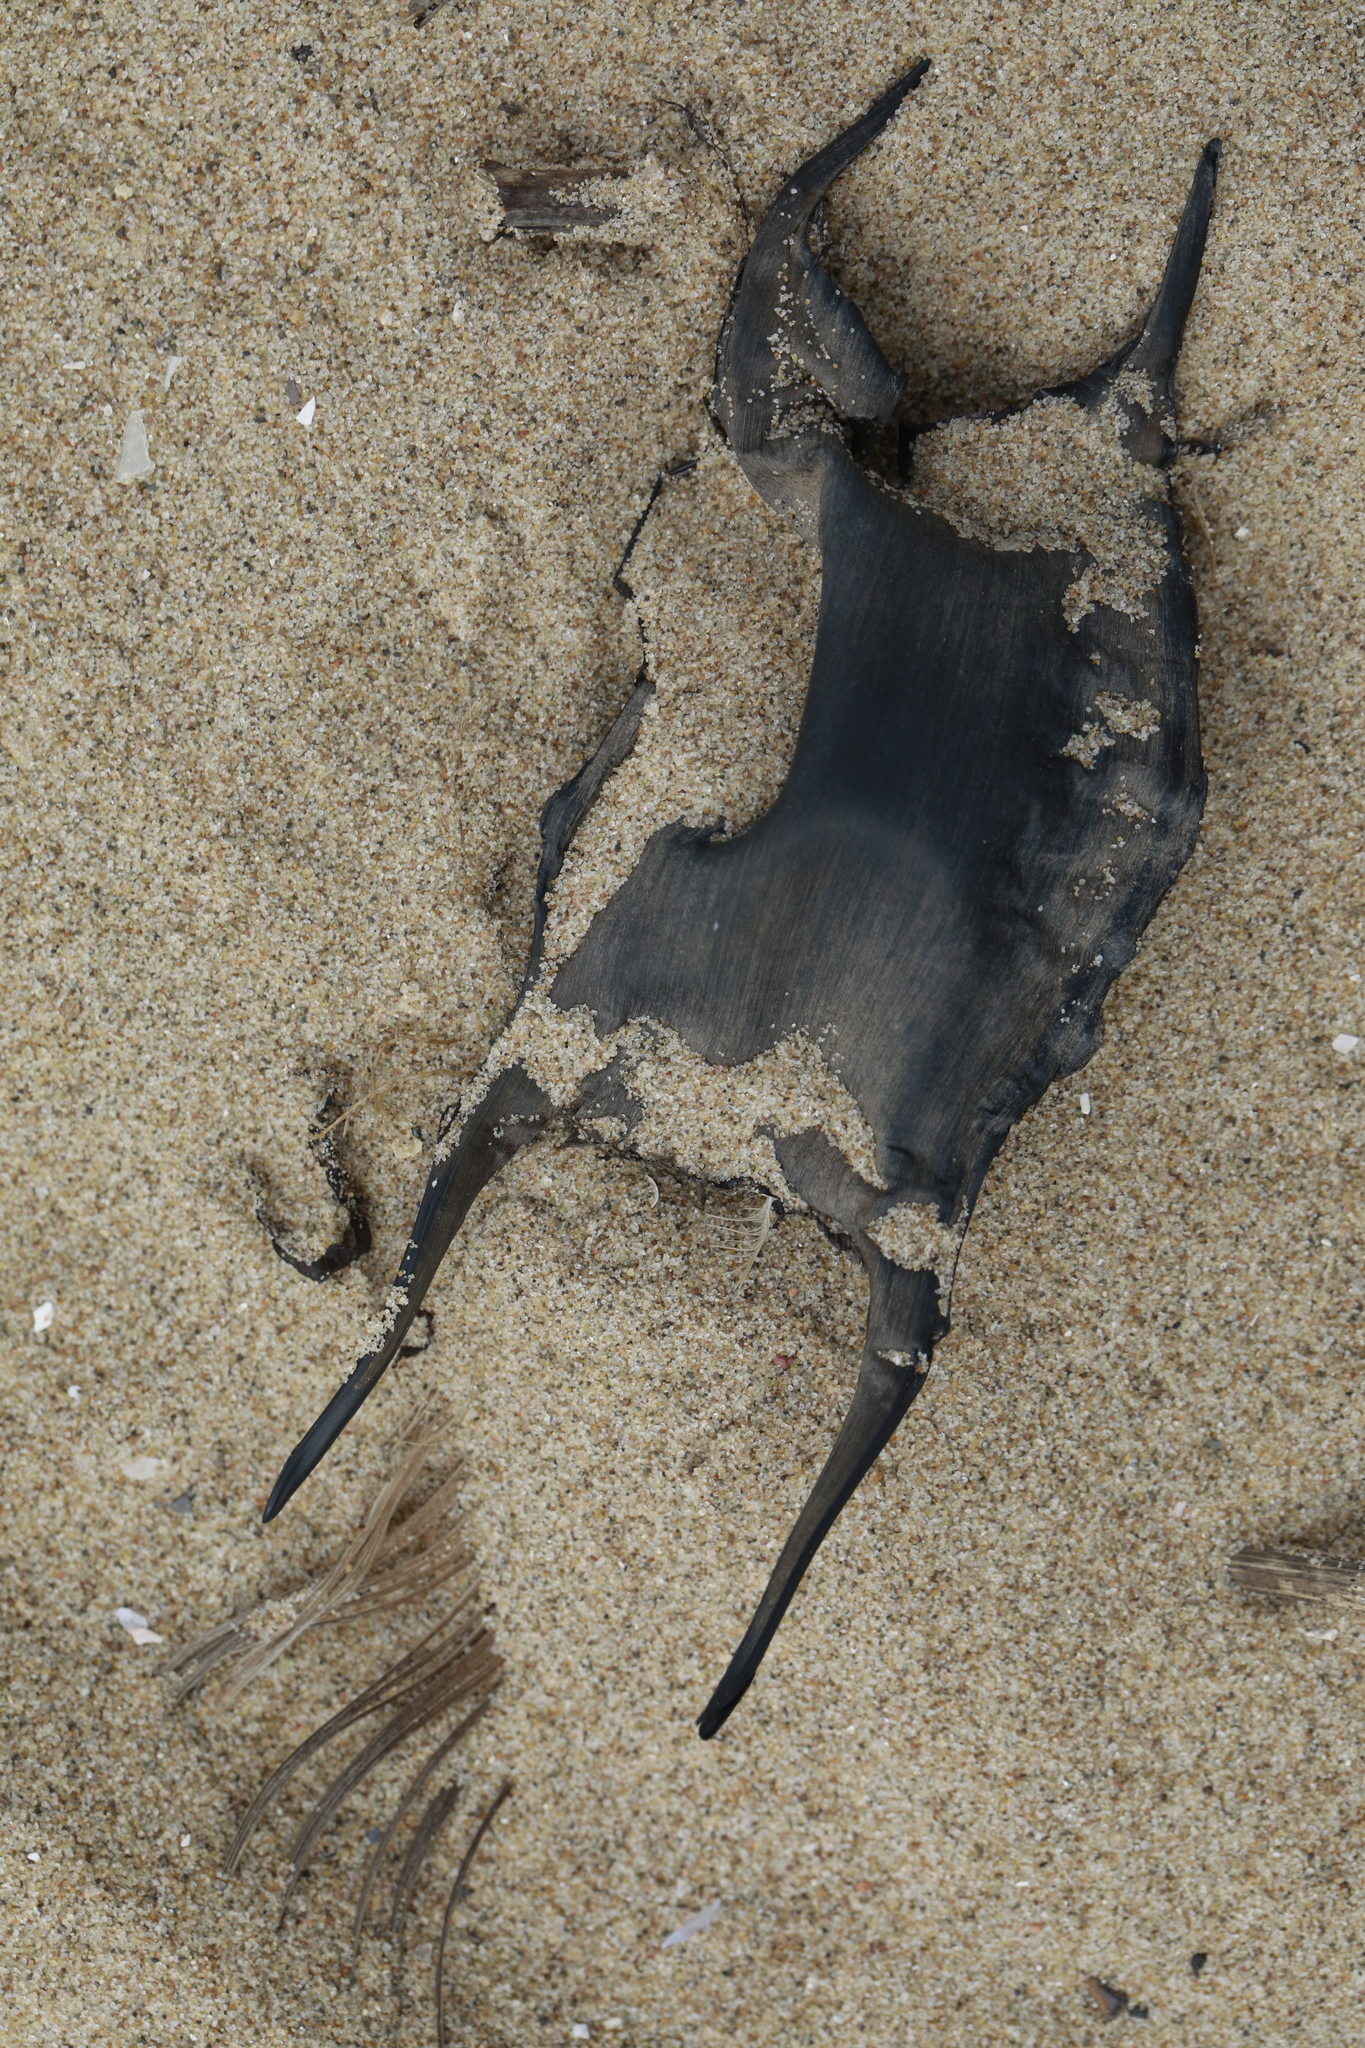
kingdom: Animalia
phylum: Chordata
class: Elasmobranchii
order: Rajiformes
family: Rajidae
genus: Raja
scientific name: Raja clavata
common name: Thornback ray
